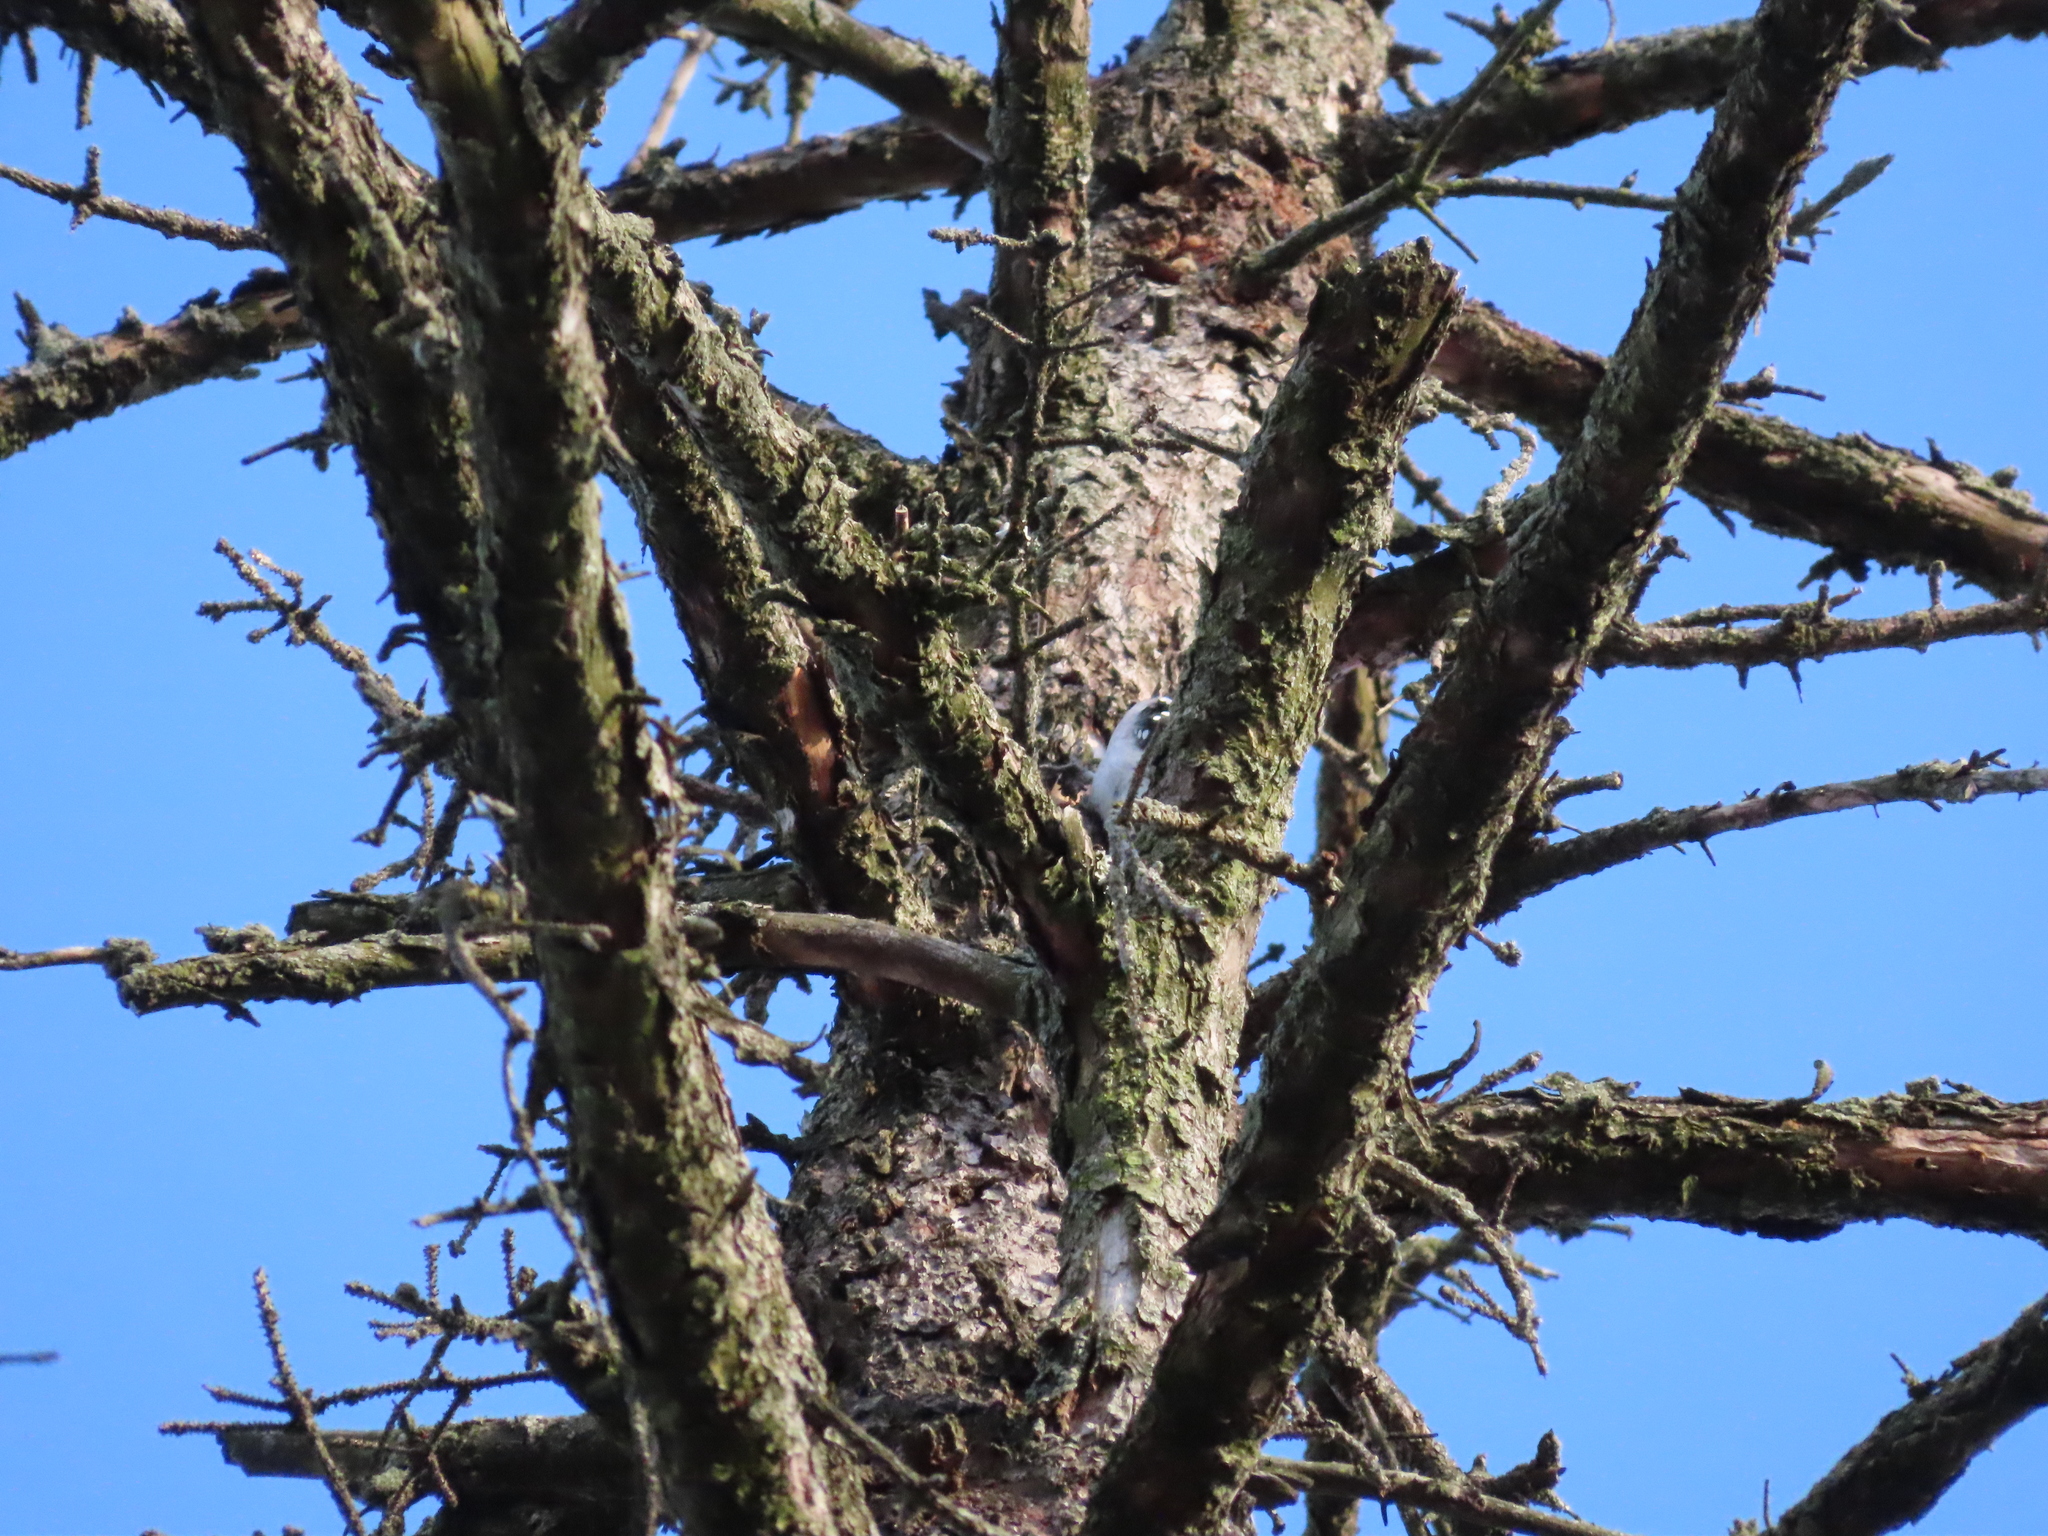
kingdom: Animalia
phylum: Chordata
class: Aves
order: Piciformes
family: Picidae
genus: Dryobates
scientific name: Dryobates pubescens
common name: Downy woodpecker
